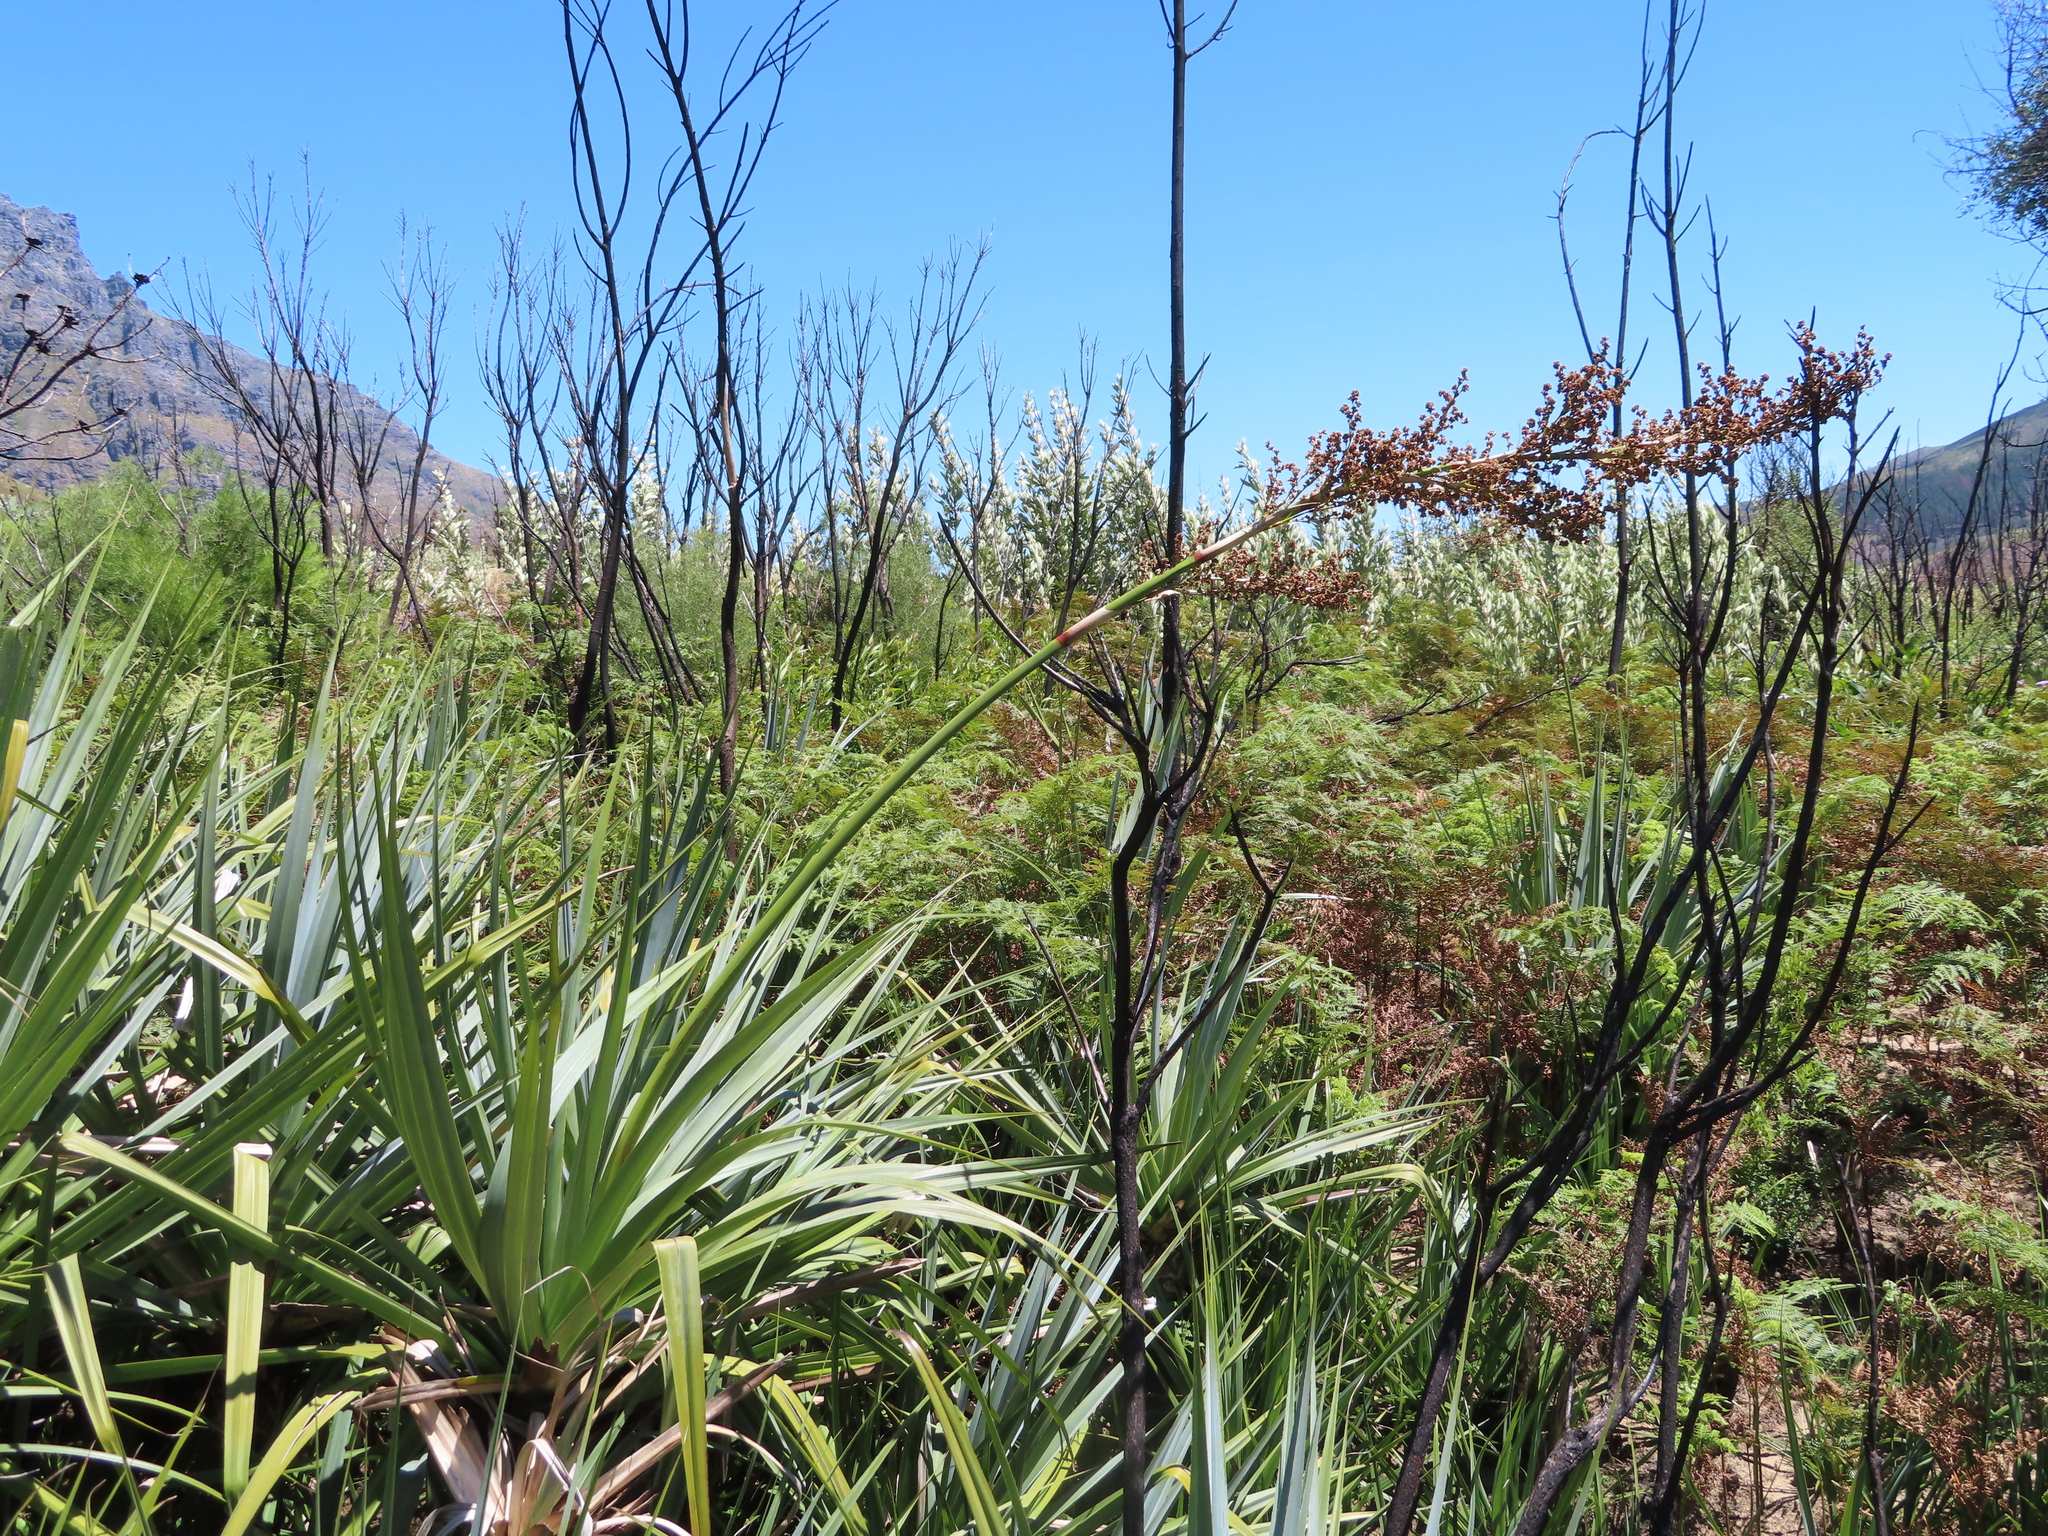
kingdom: Plantae
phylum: Tracheophyta
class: Liliopsida
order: Poales
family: Thurniaceae
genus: Prionium
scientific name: Prionium serratum
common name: Palmiet
